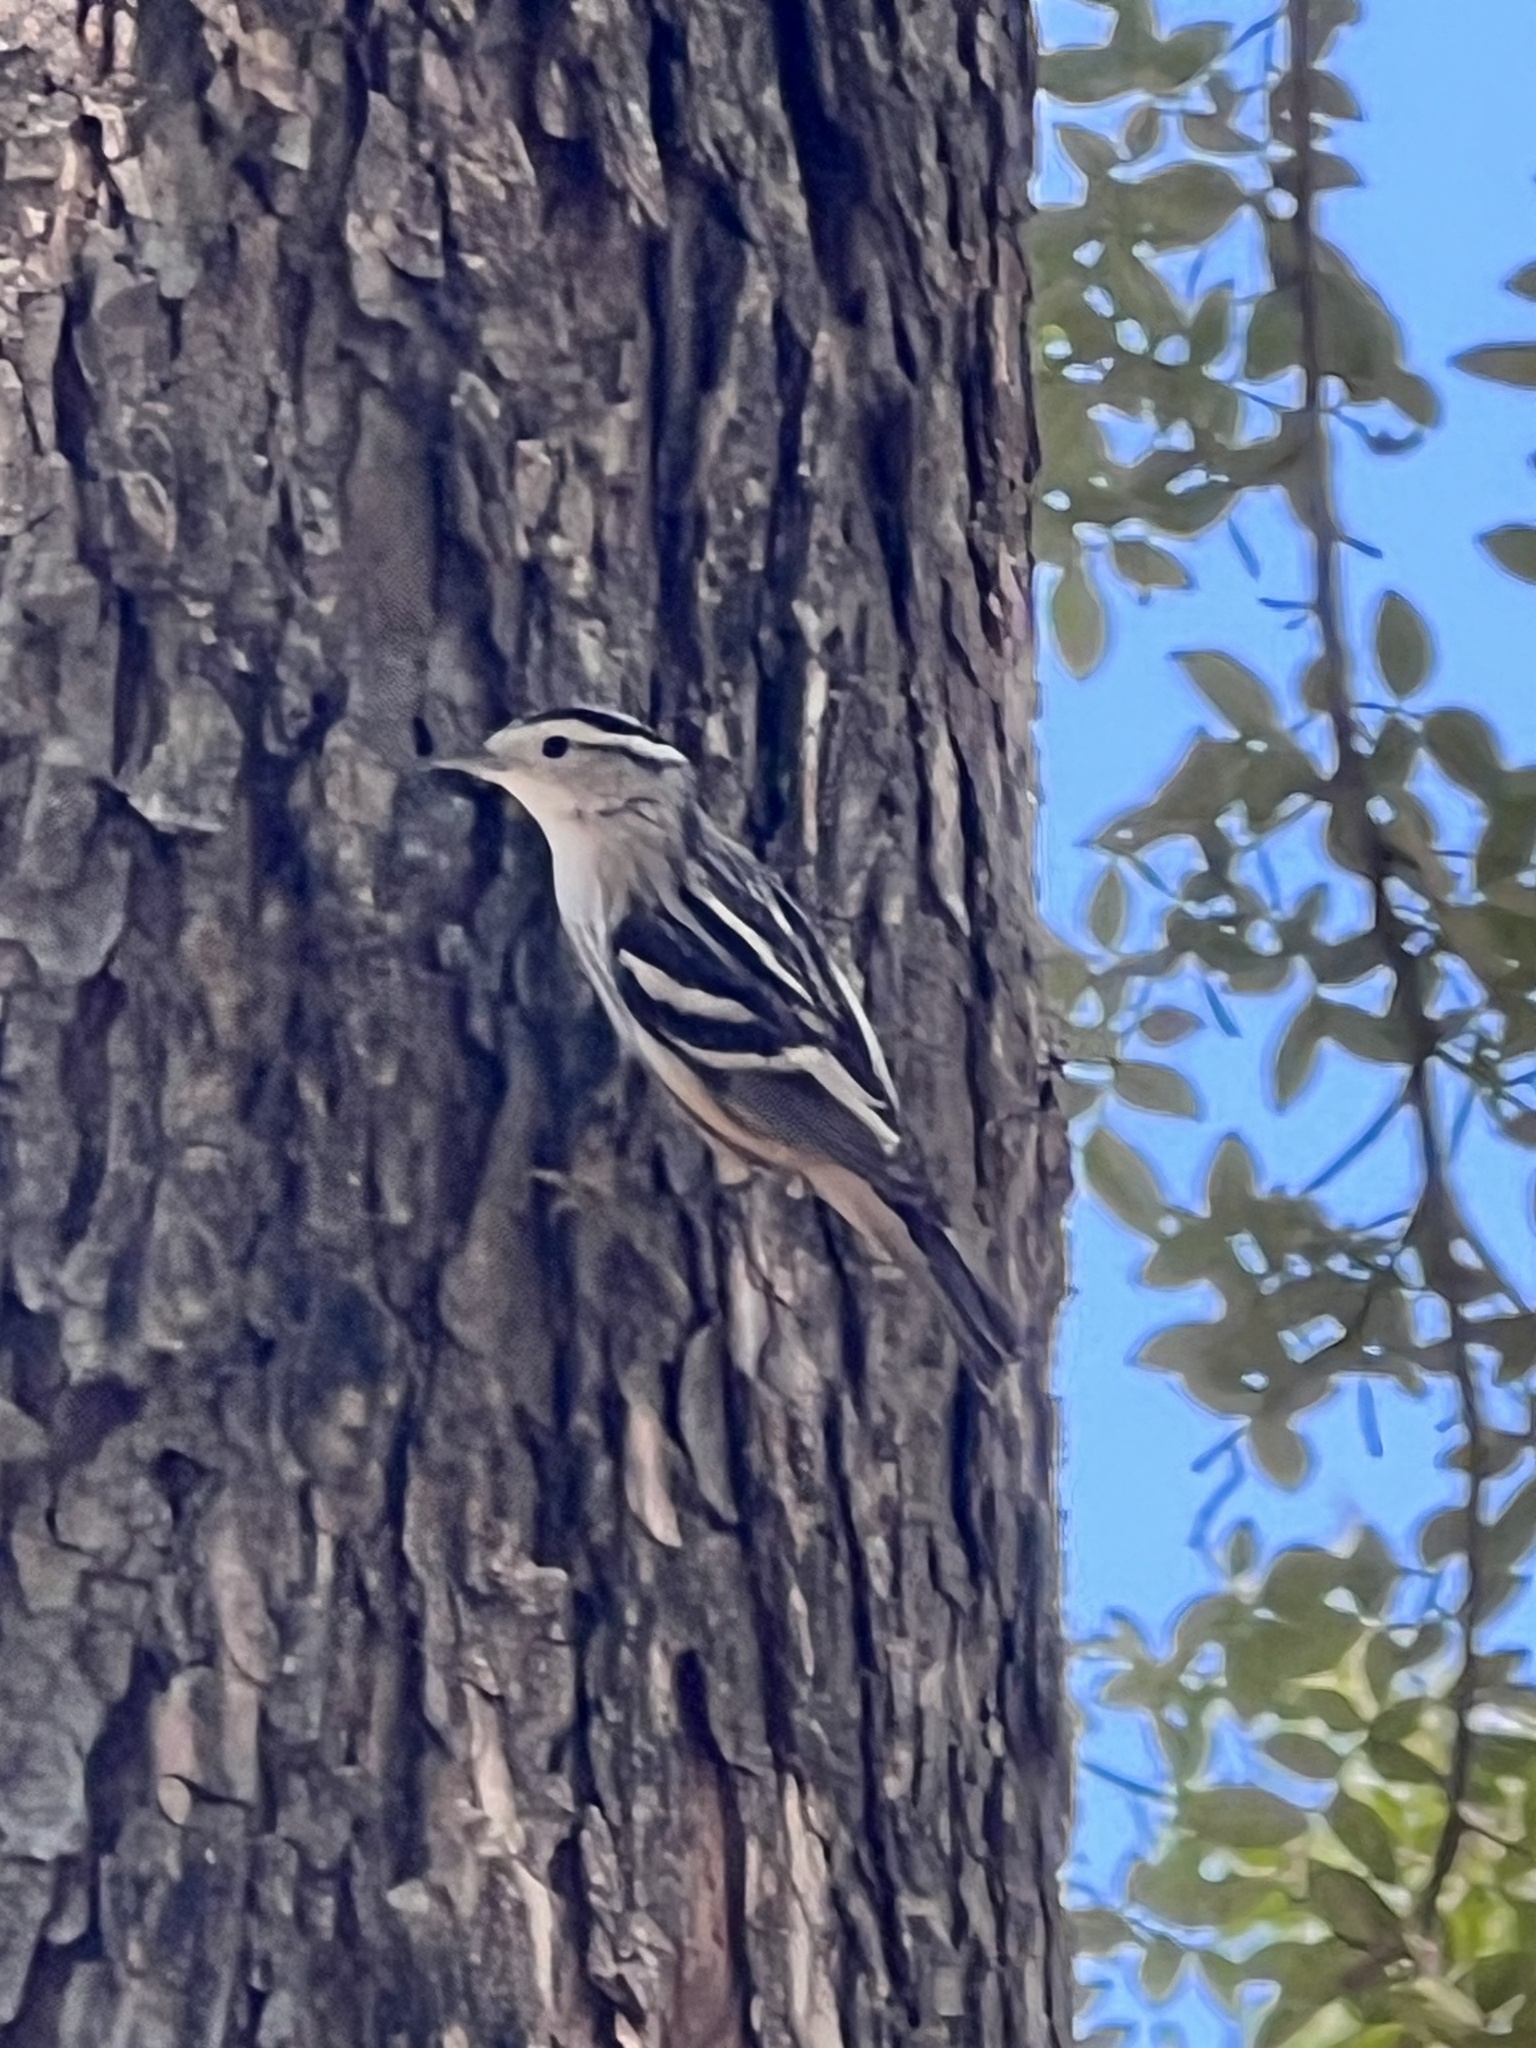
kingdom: Animalia
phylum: Chordata
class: Aves
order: Passeriformes
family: Parulidae
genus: Mniotilta
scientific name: Mniotilta varia
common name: Black-and-white warbler
